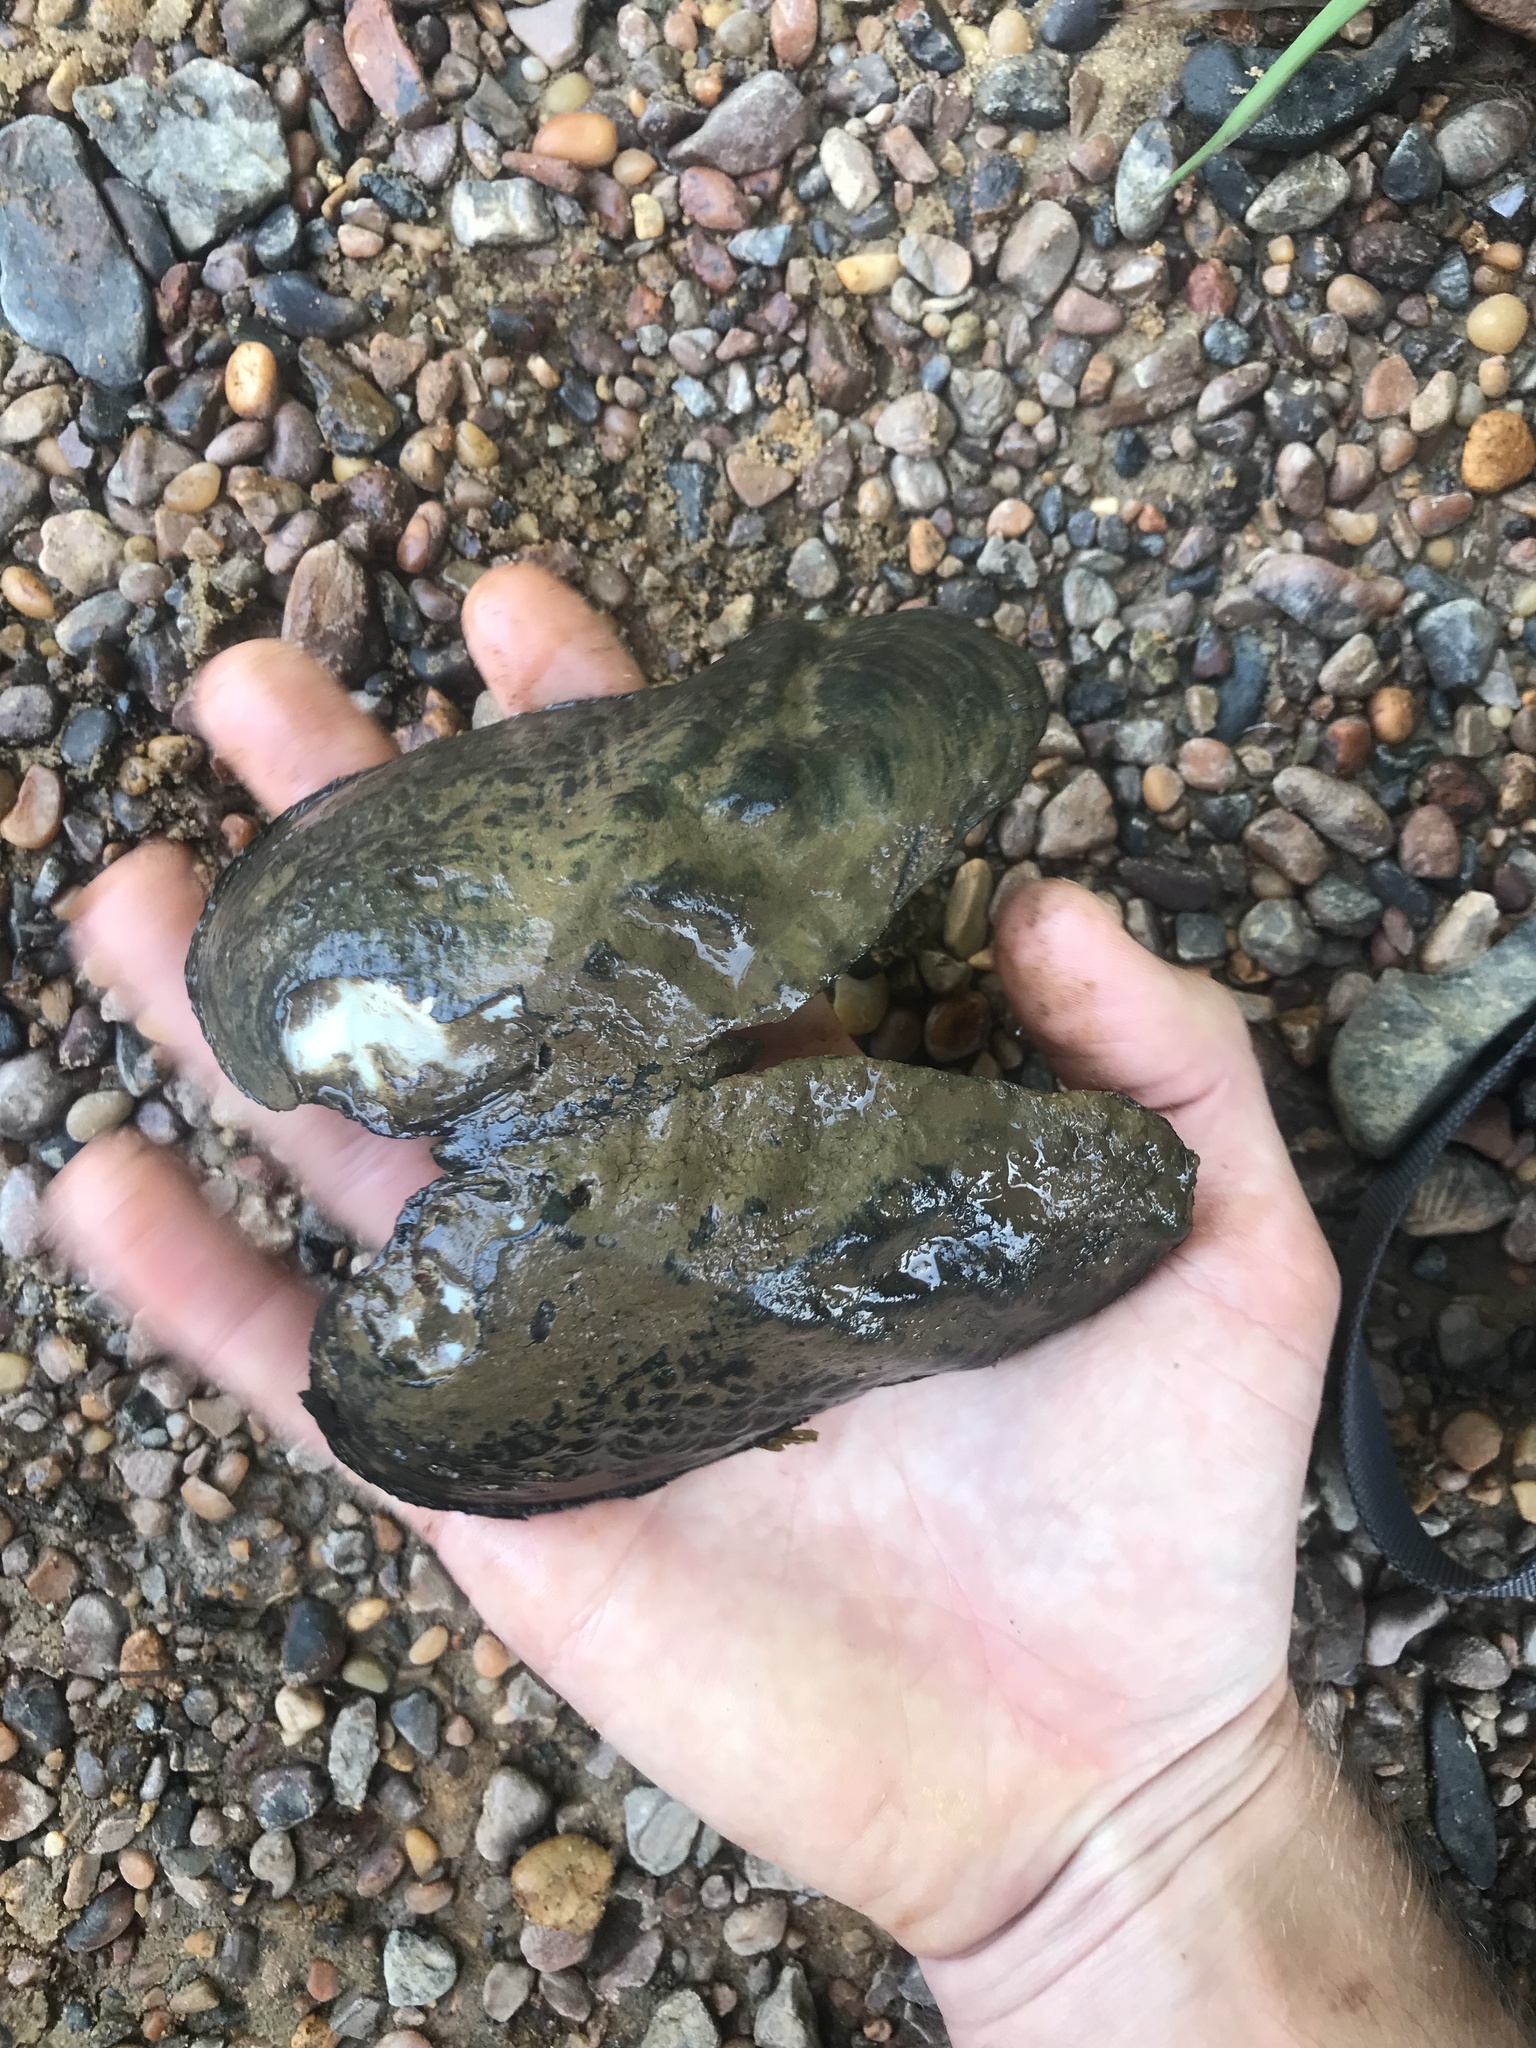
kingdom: Animalia
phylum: Mollusca
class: Bivalvia
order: Unionida
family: Unionidae
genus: Tritogonia
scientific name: Tritogonia verrucosa
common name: Pistolgrip
